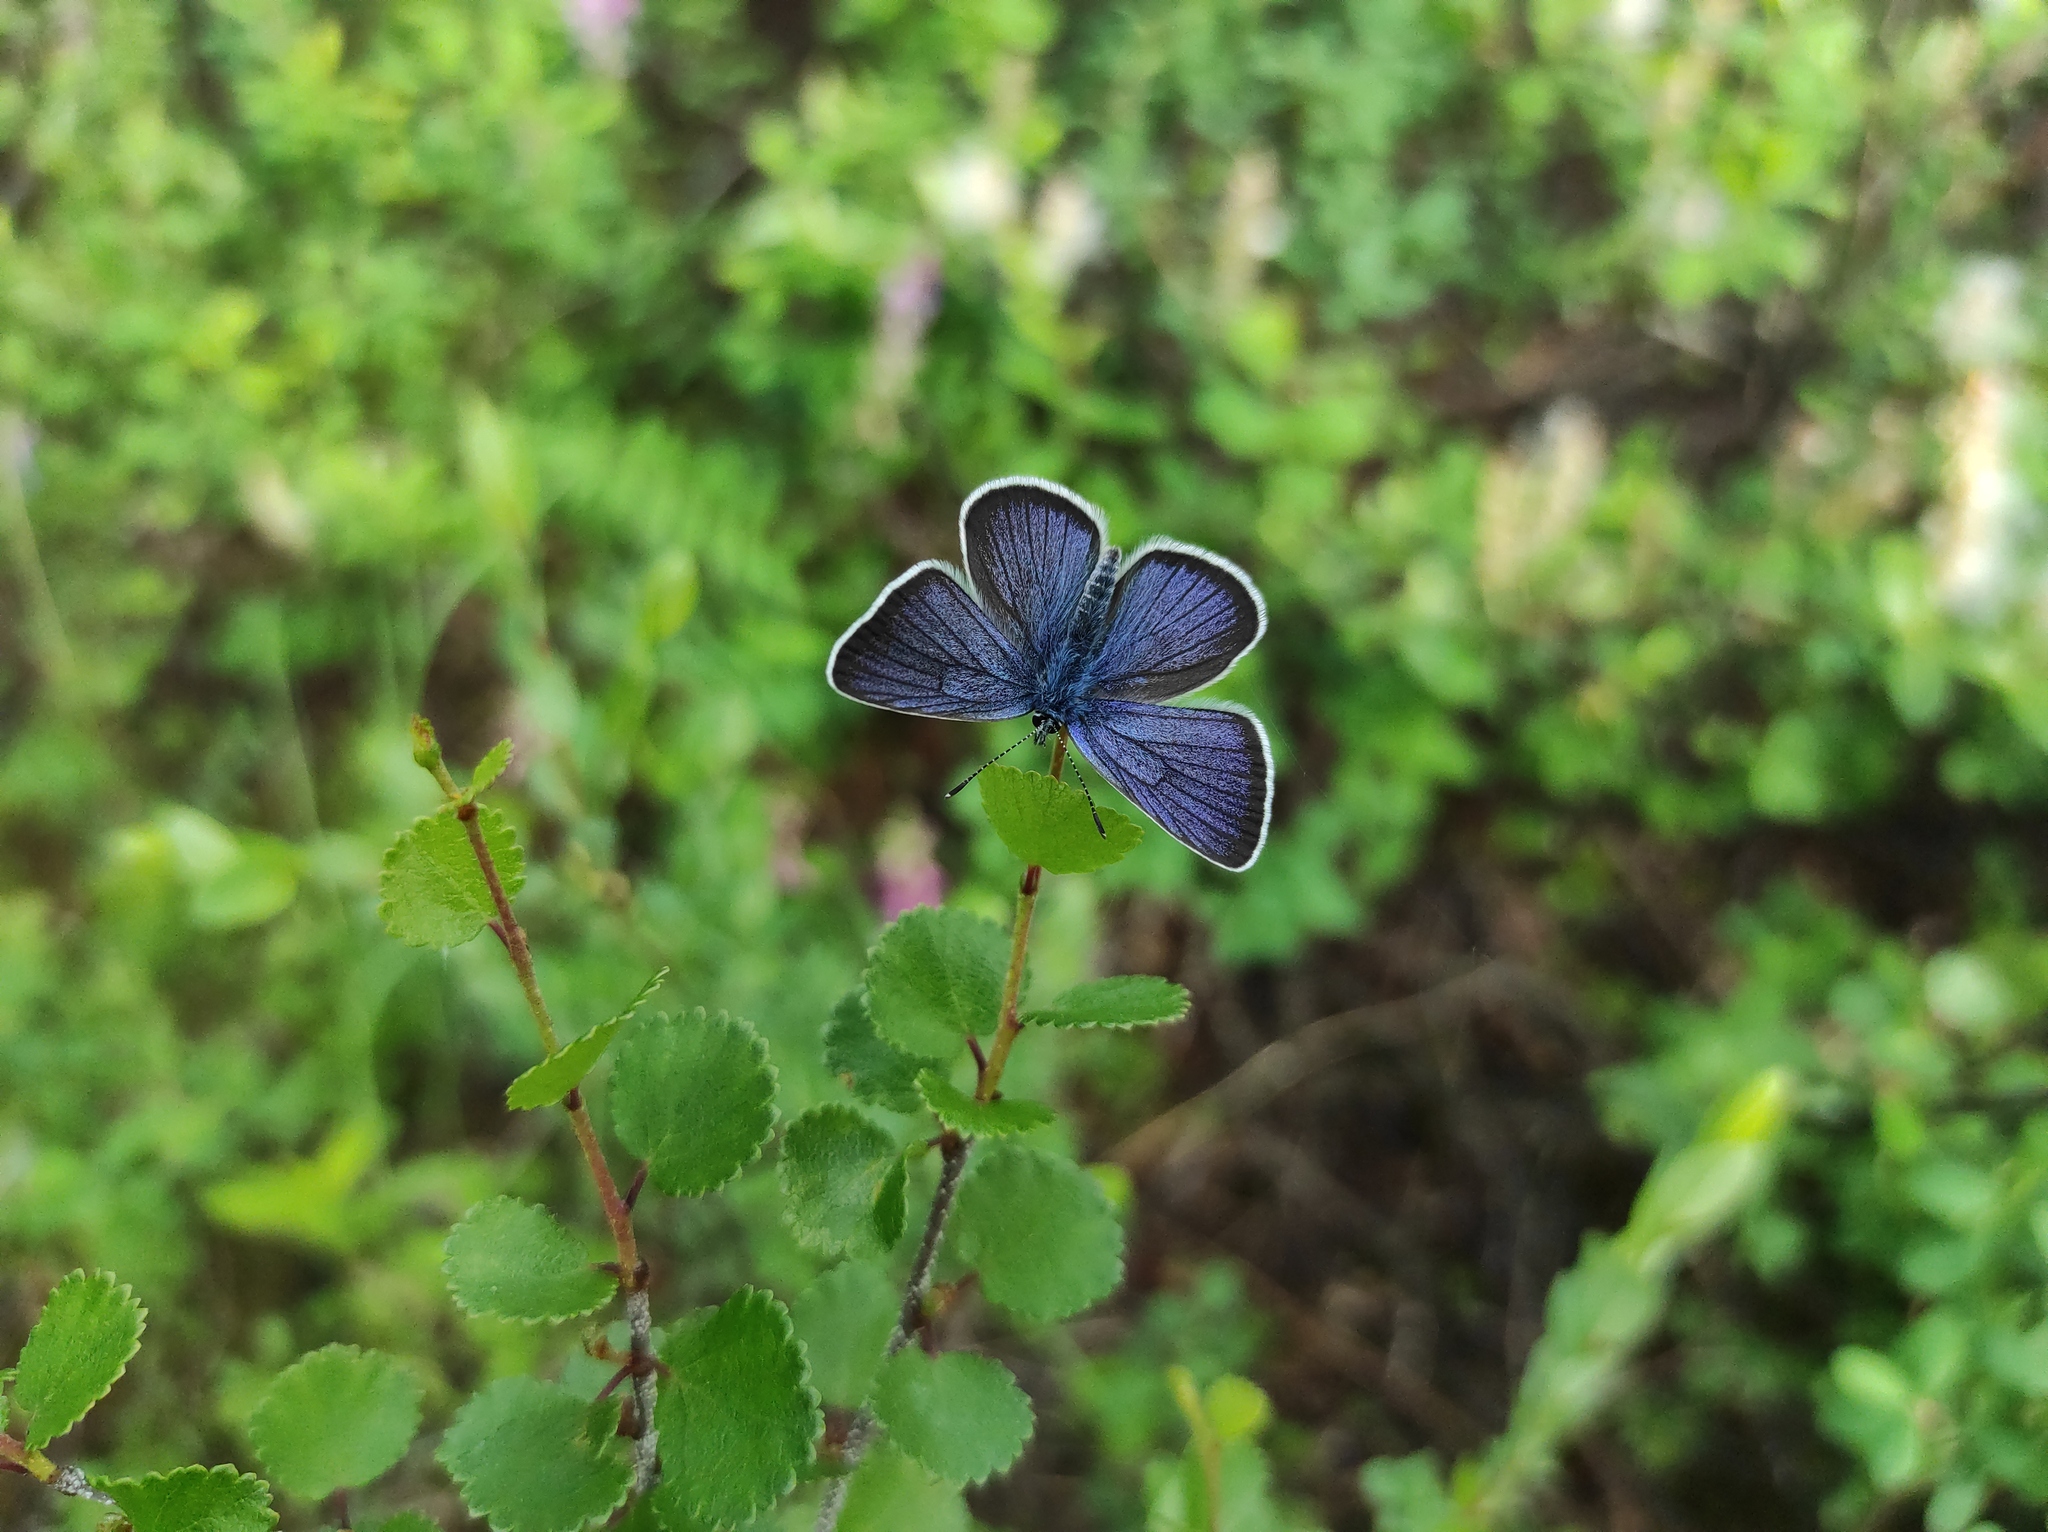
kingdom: Animalia
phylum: Arthropoda
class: Insecta
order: Lepidoptera
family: Lycaenidae
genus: Cyaniris
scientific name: Cyaniris semiargus
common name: Mazarine blue
